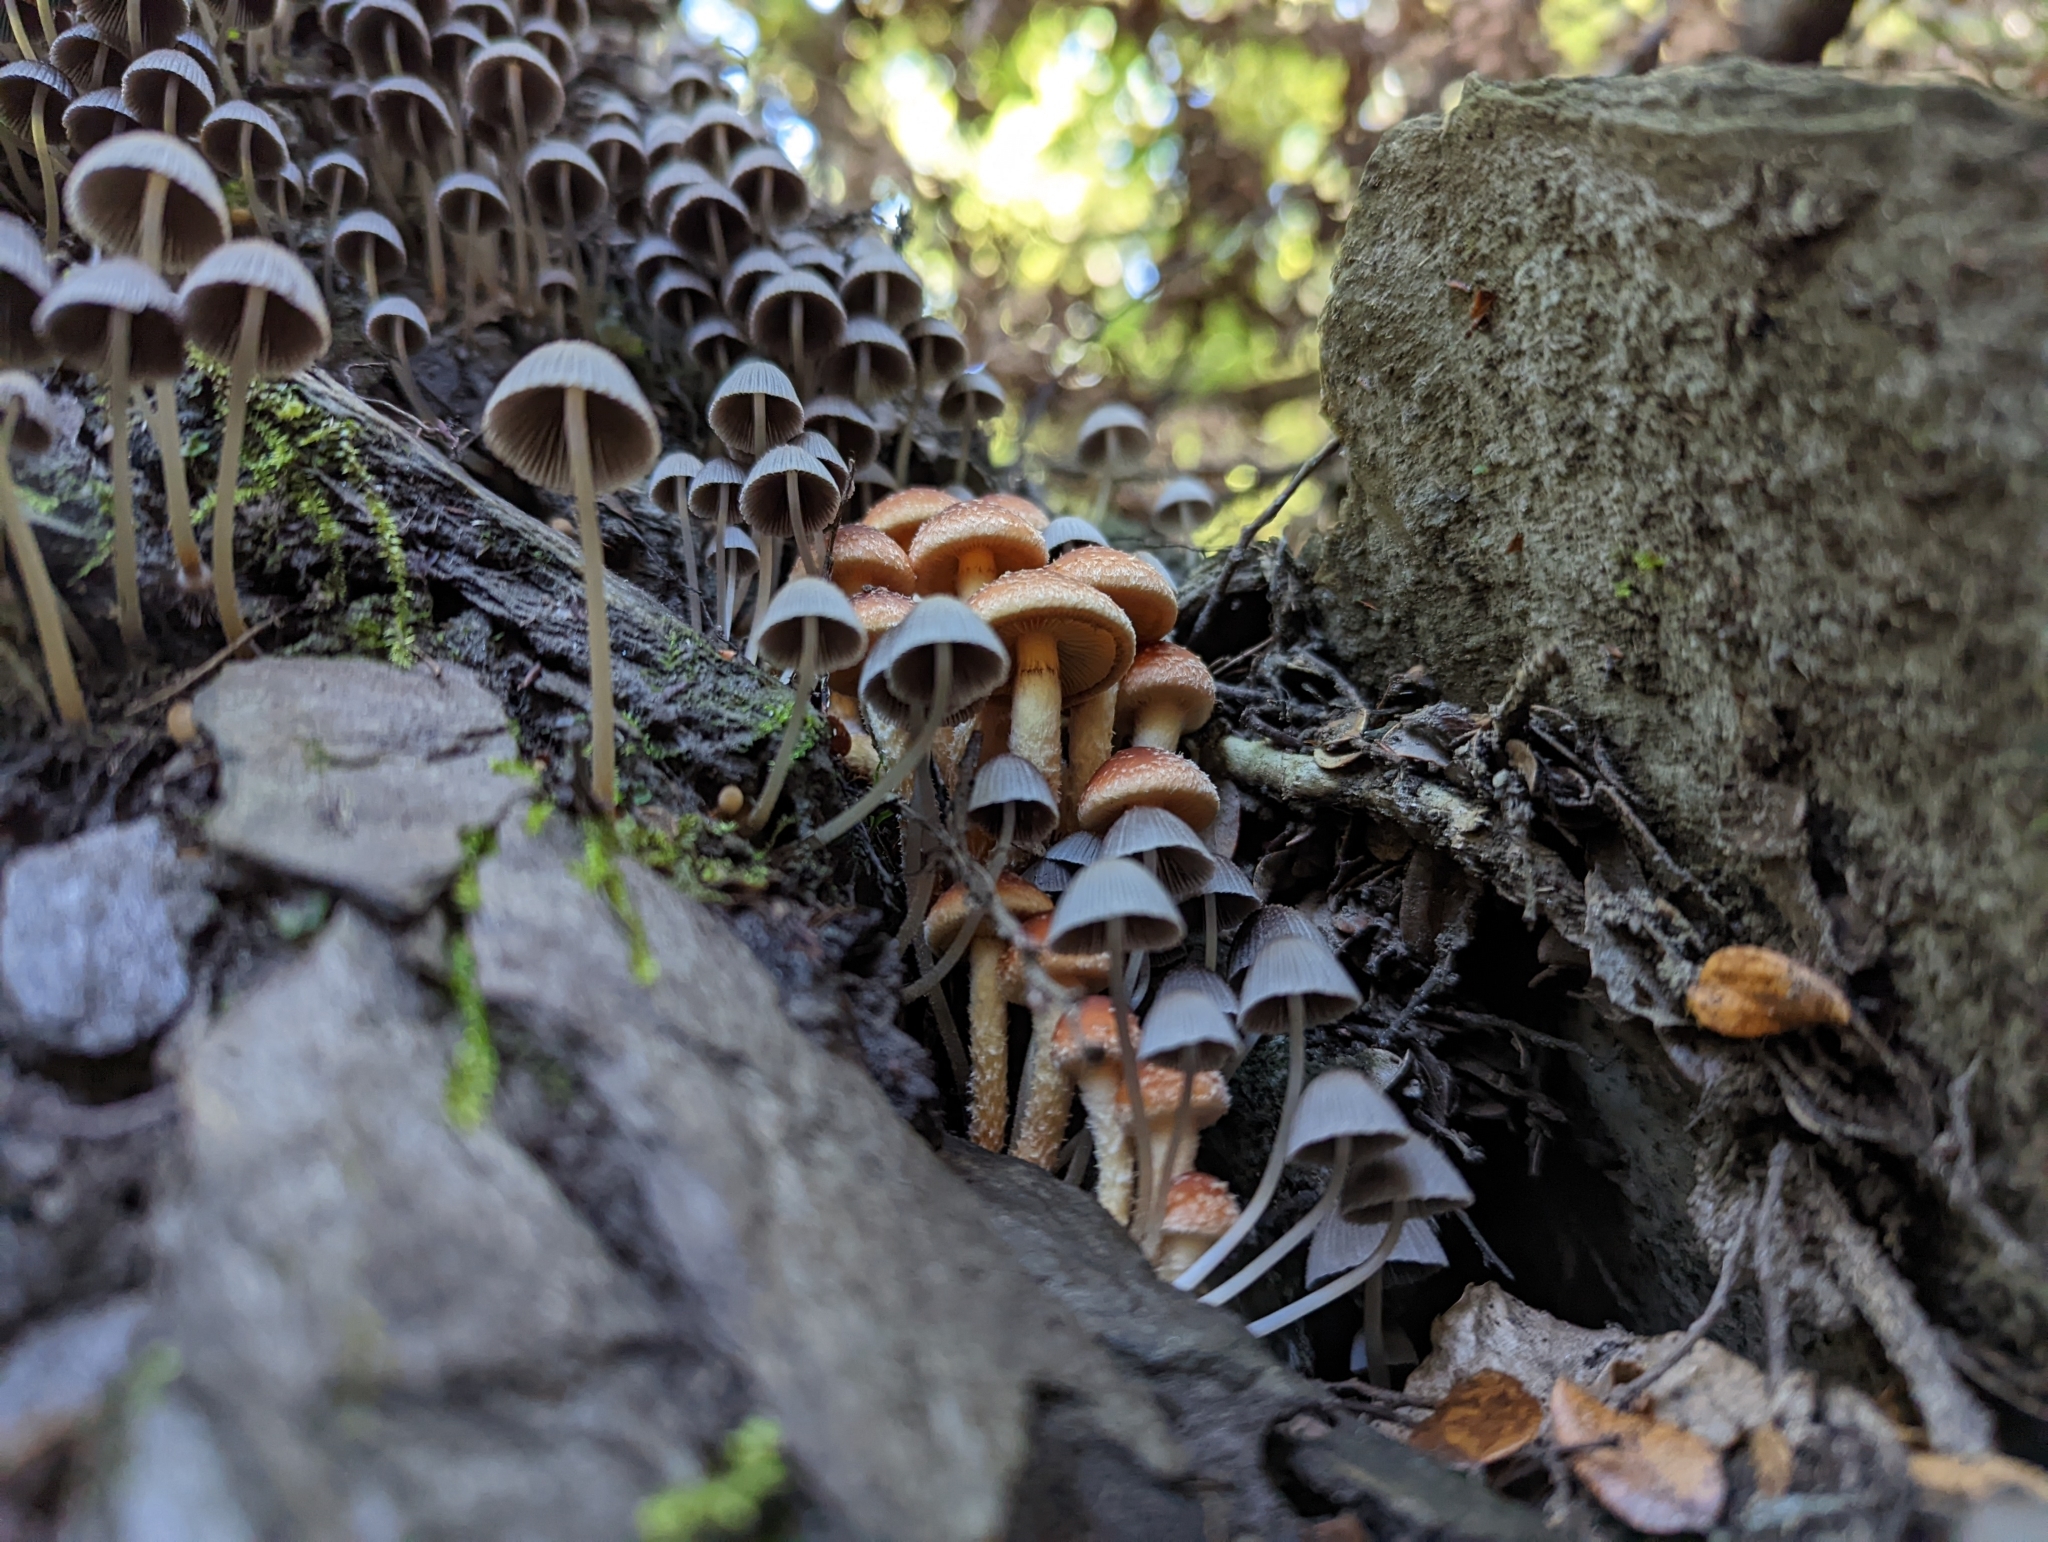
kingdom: Fungi
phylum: Basidiomycota
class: Agaricomycetes
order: Agaricales
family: Strophariaceae
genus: Hypholoma
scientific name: Hypholoma australianum
